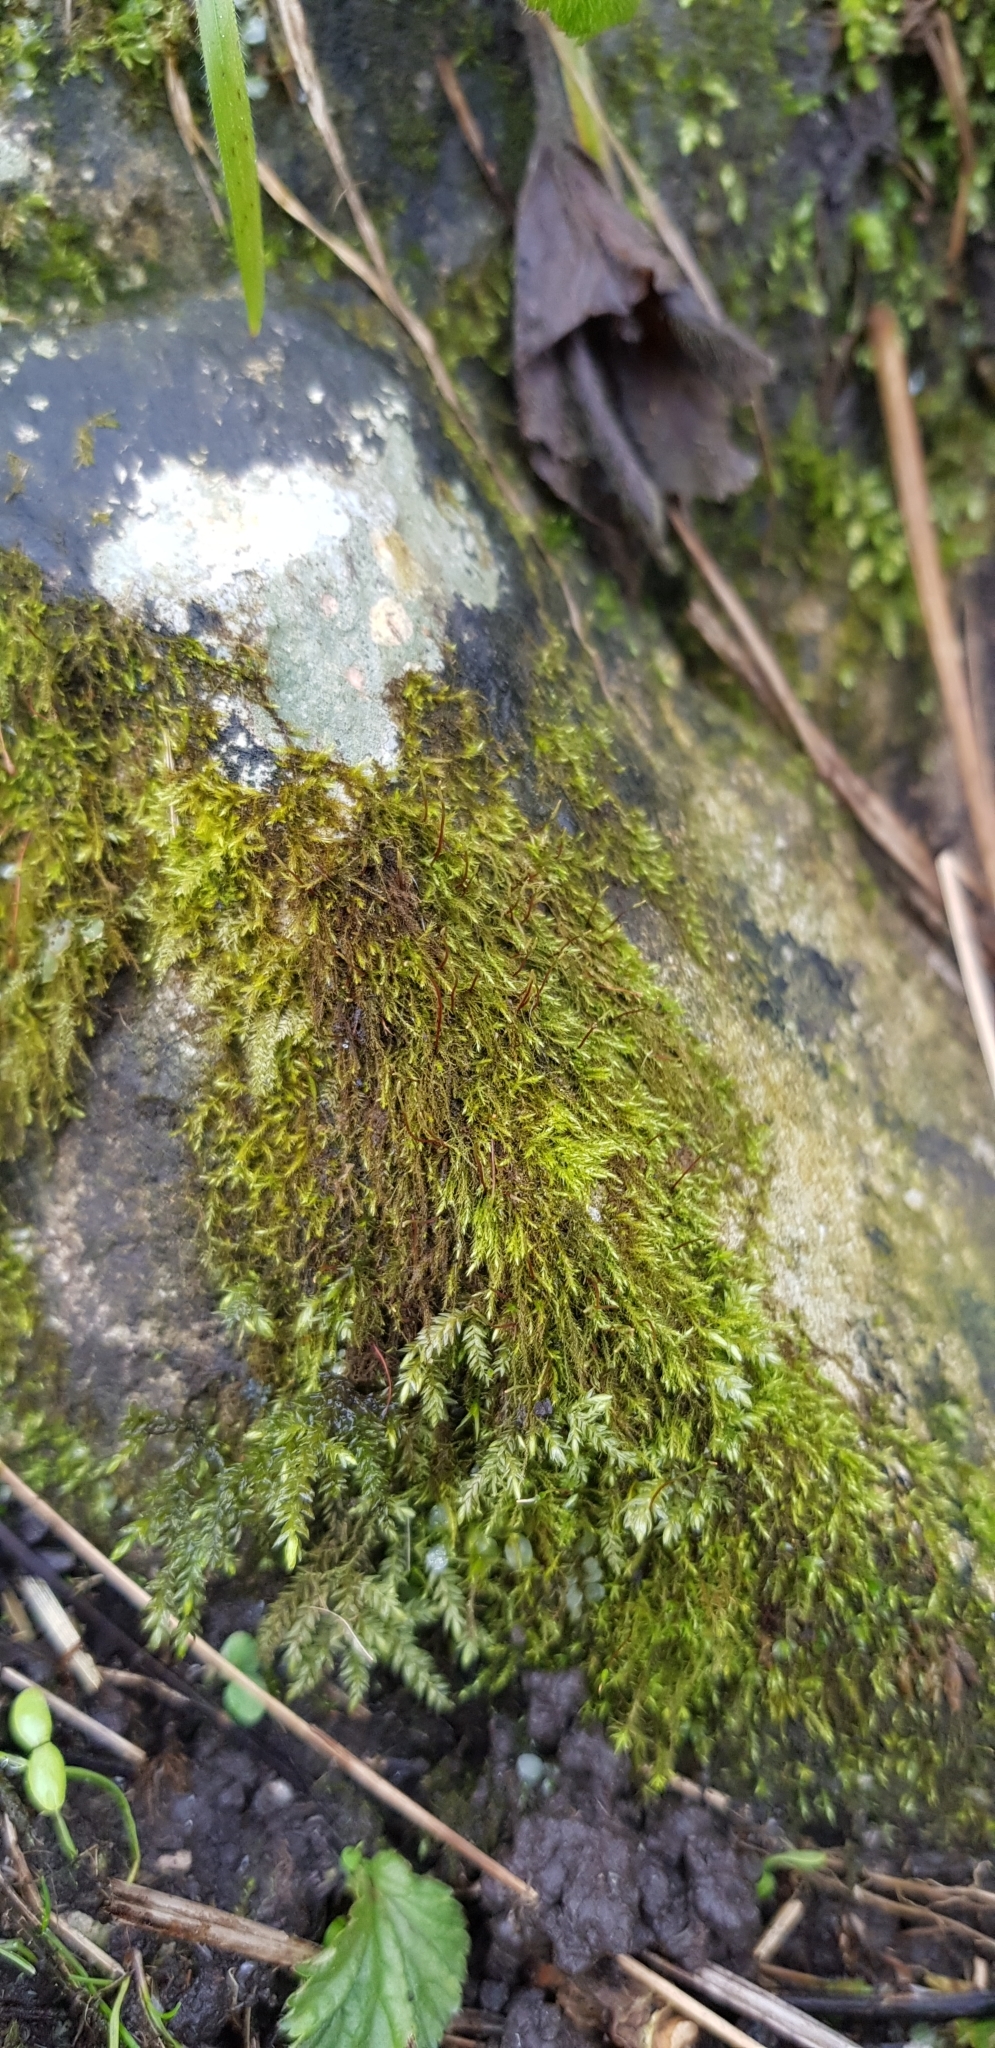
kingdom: Plantae
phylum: Bryophyta
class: Bryopsida
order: Hypnales
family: Amblystegiaceae
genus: Amblystegium
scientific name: Amblystegium serpens
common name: Jurkatzka's feather moss
